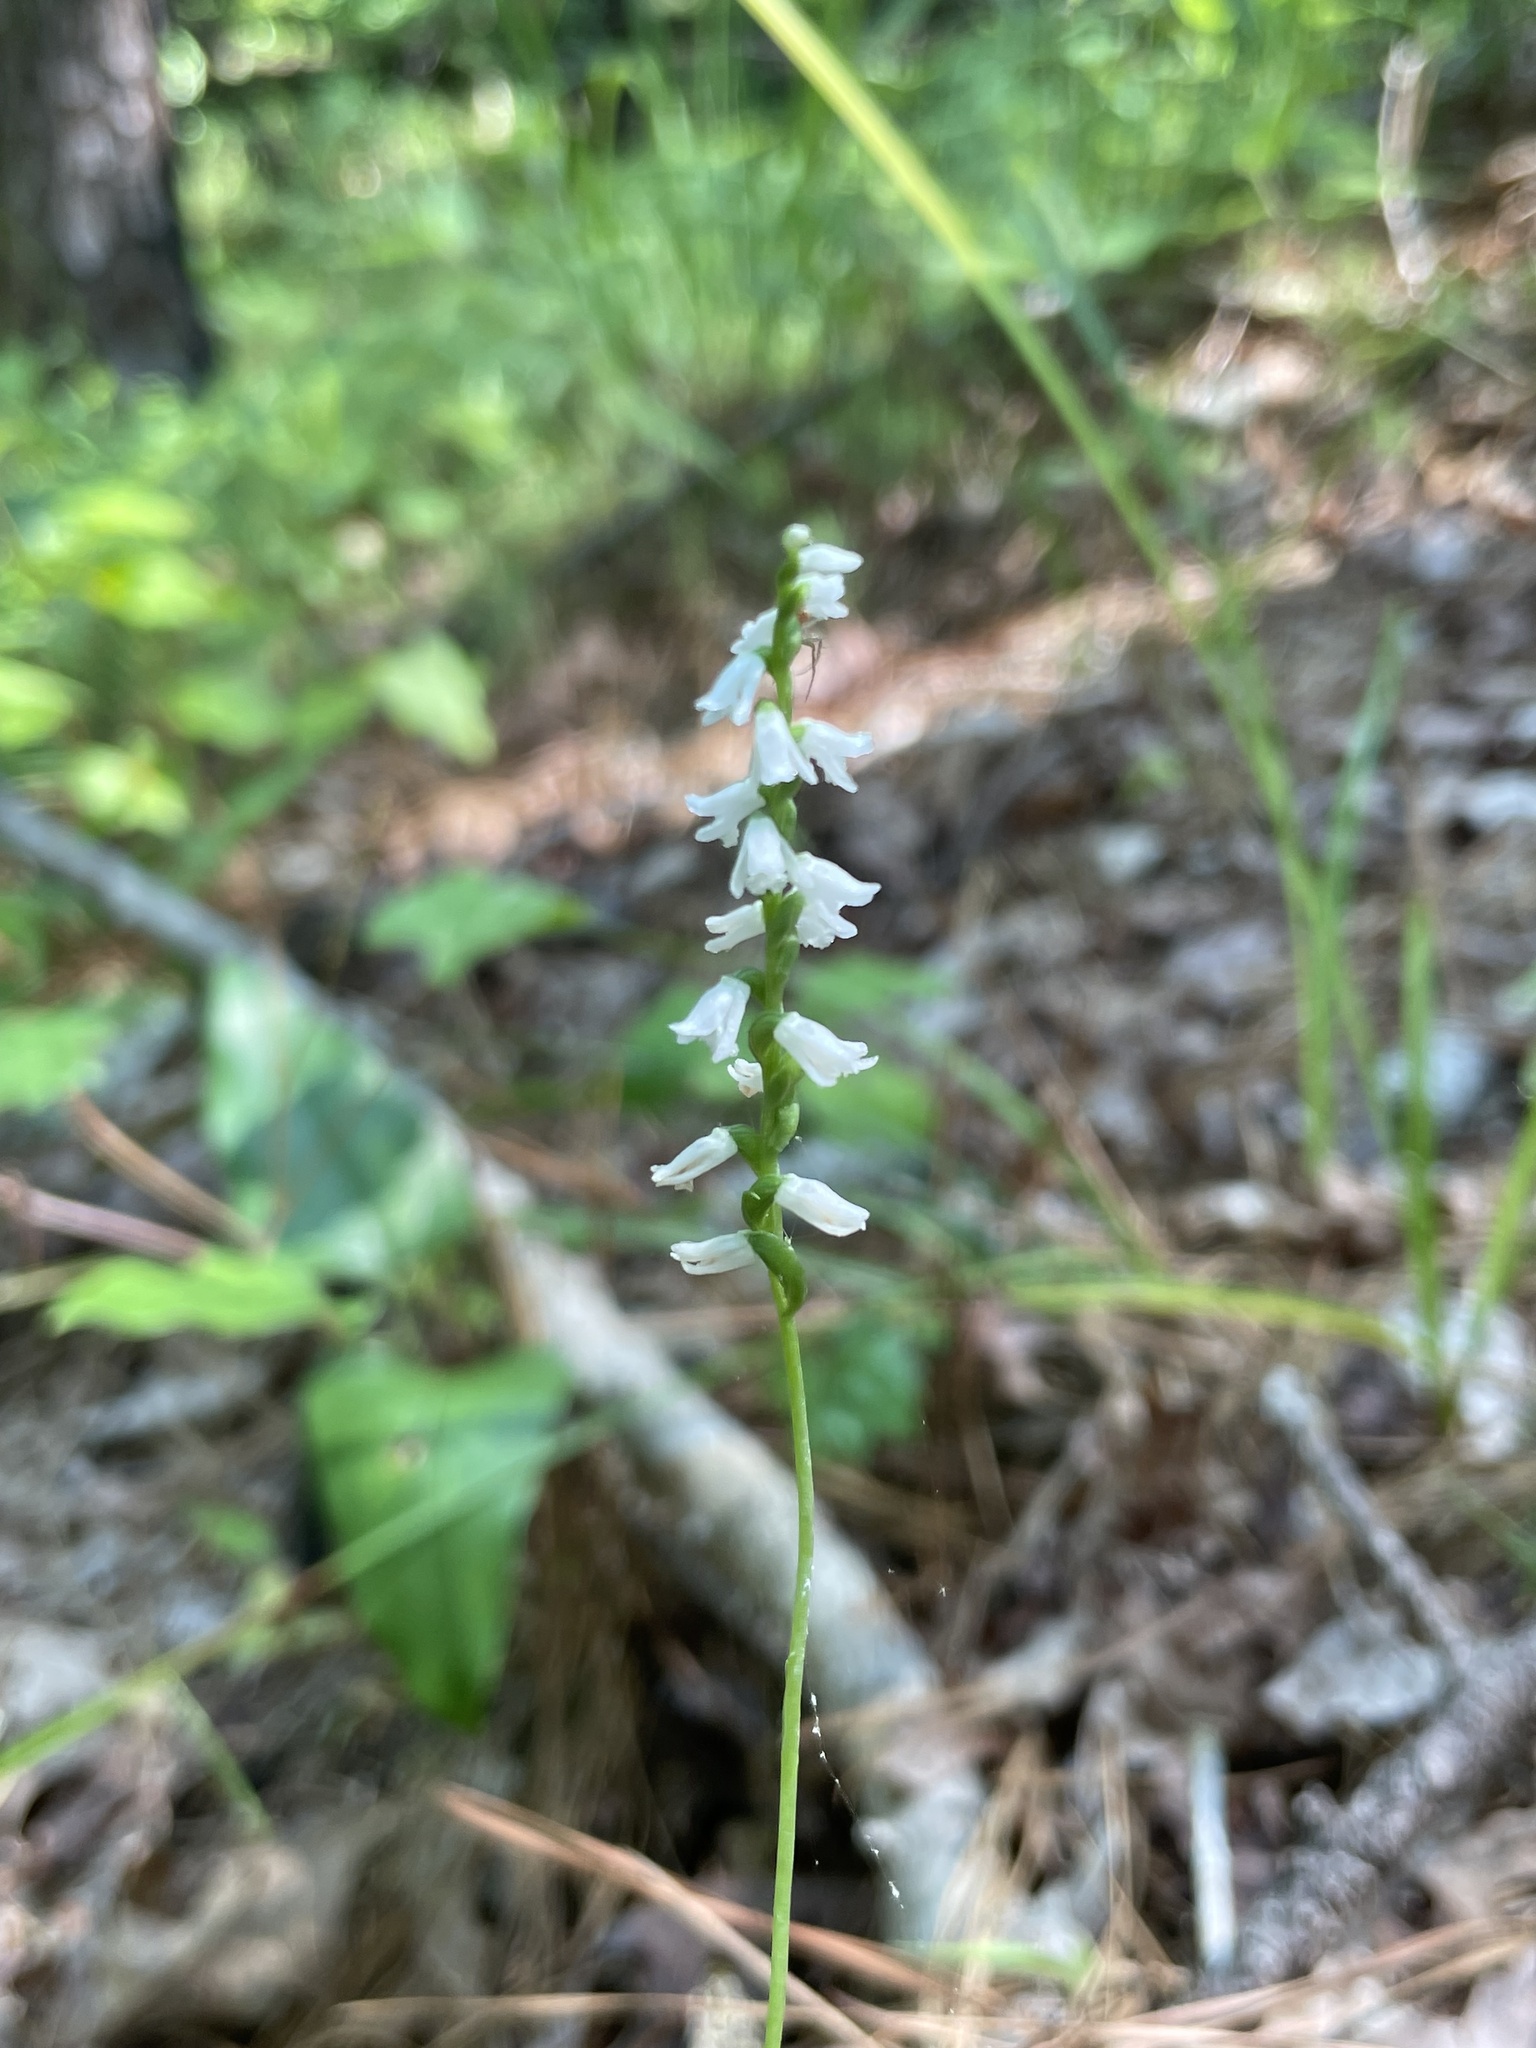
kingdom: Plantae
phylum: Tracheophyta
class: Liliopsida
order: Asparagales
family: Orchidaceae
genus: Spiranthes
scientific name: Spiranthes tuberosa
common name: Little ladies'-tresses
